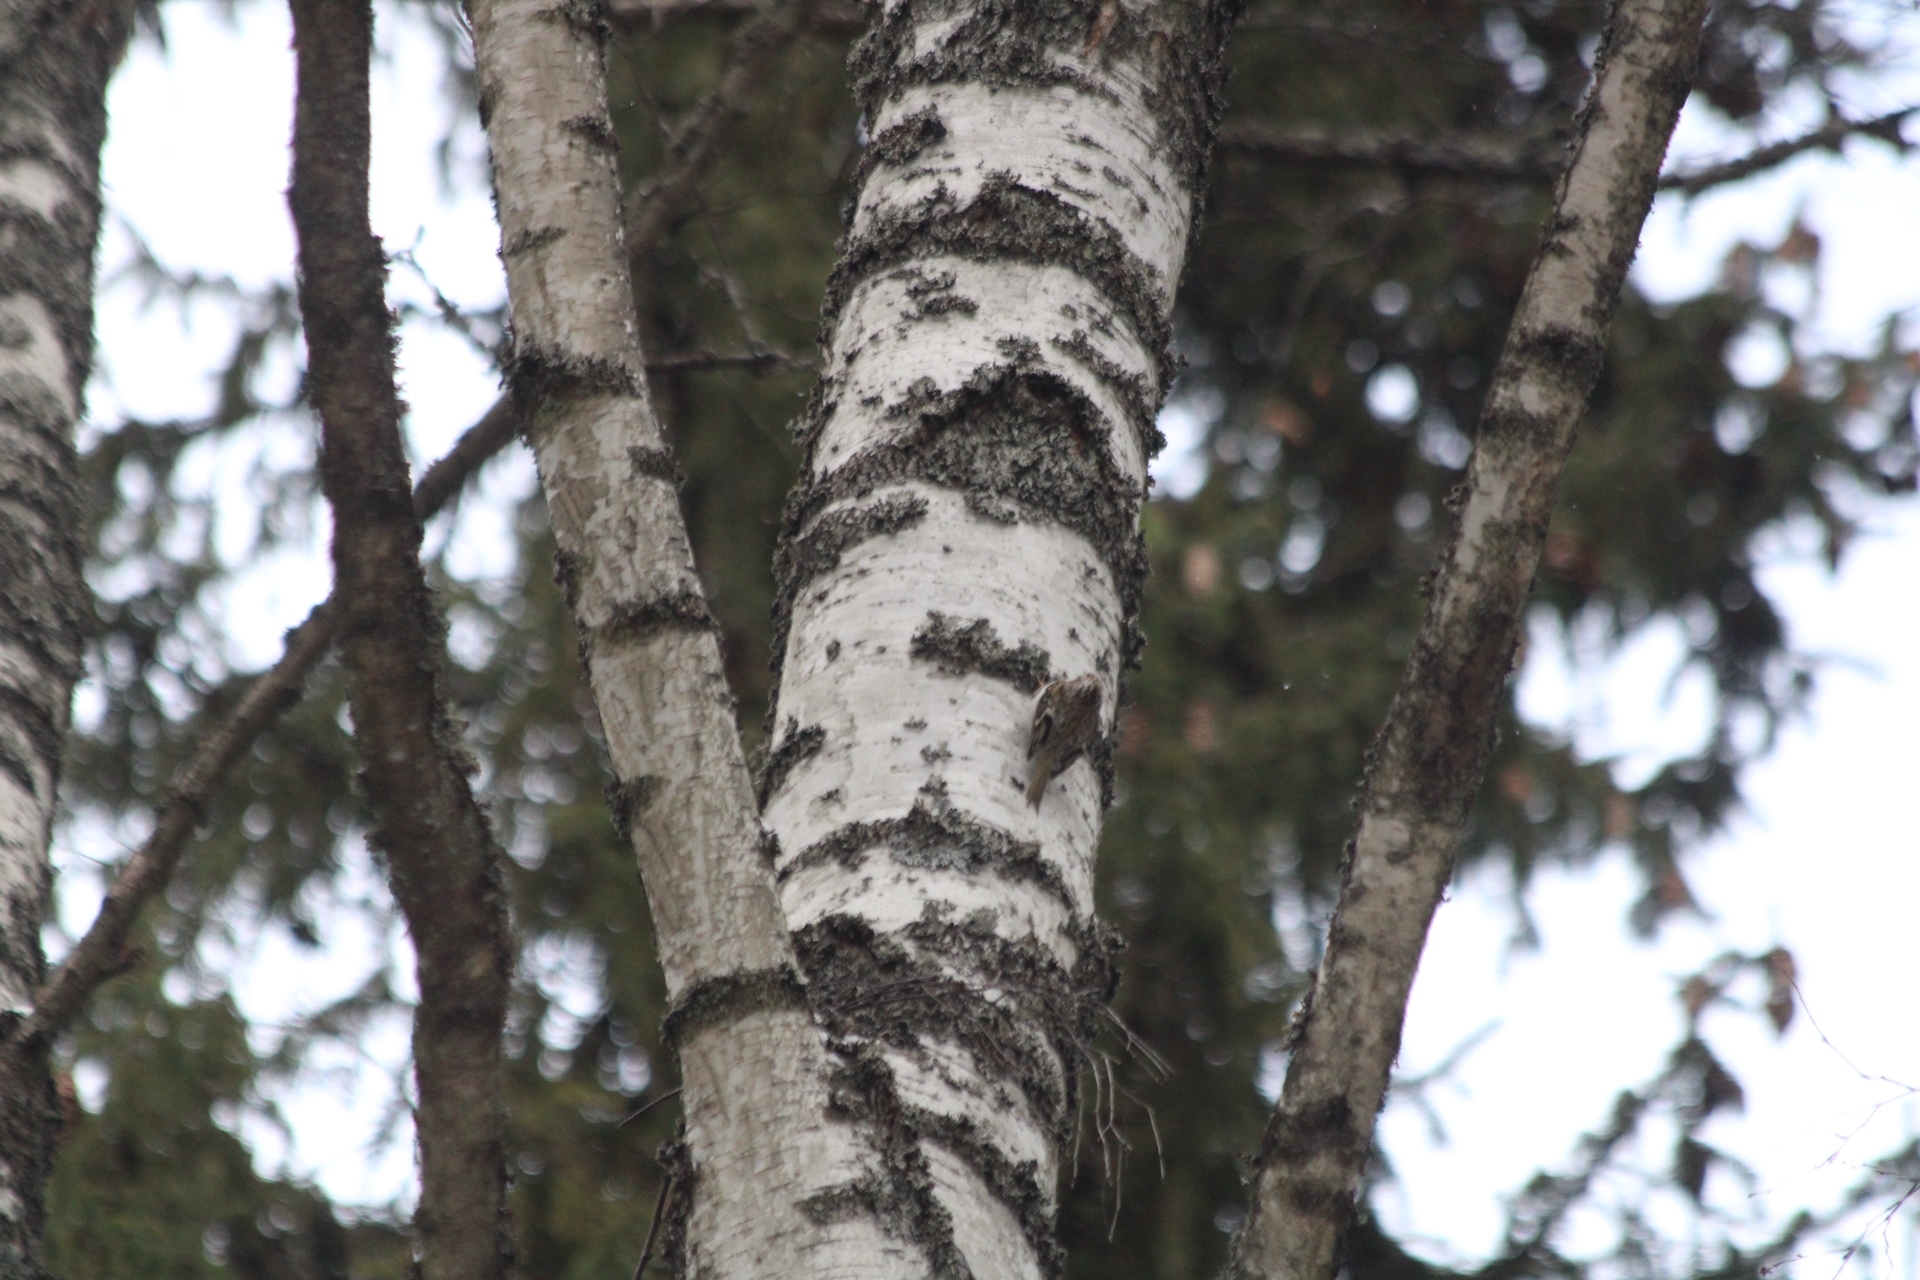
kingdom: Animalia
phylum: Chordata
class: Aves
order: Passeriformes
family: Certhiidae
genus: Certhia
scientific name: Certhia familiaris
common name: Eurasian treecreeper
